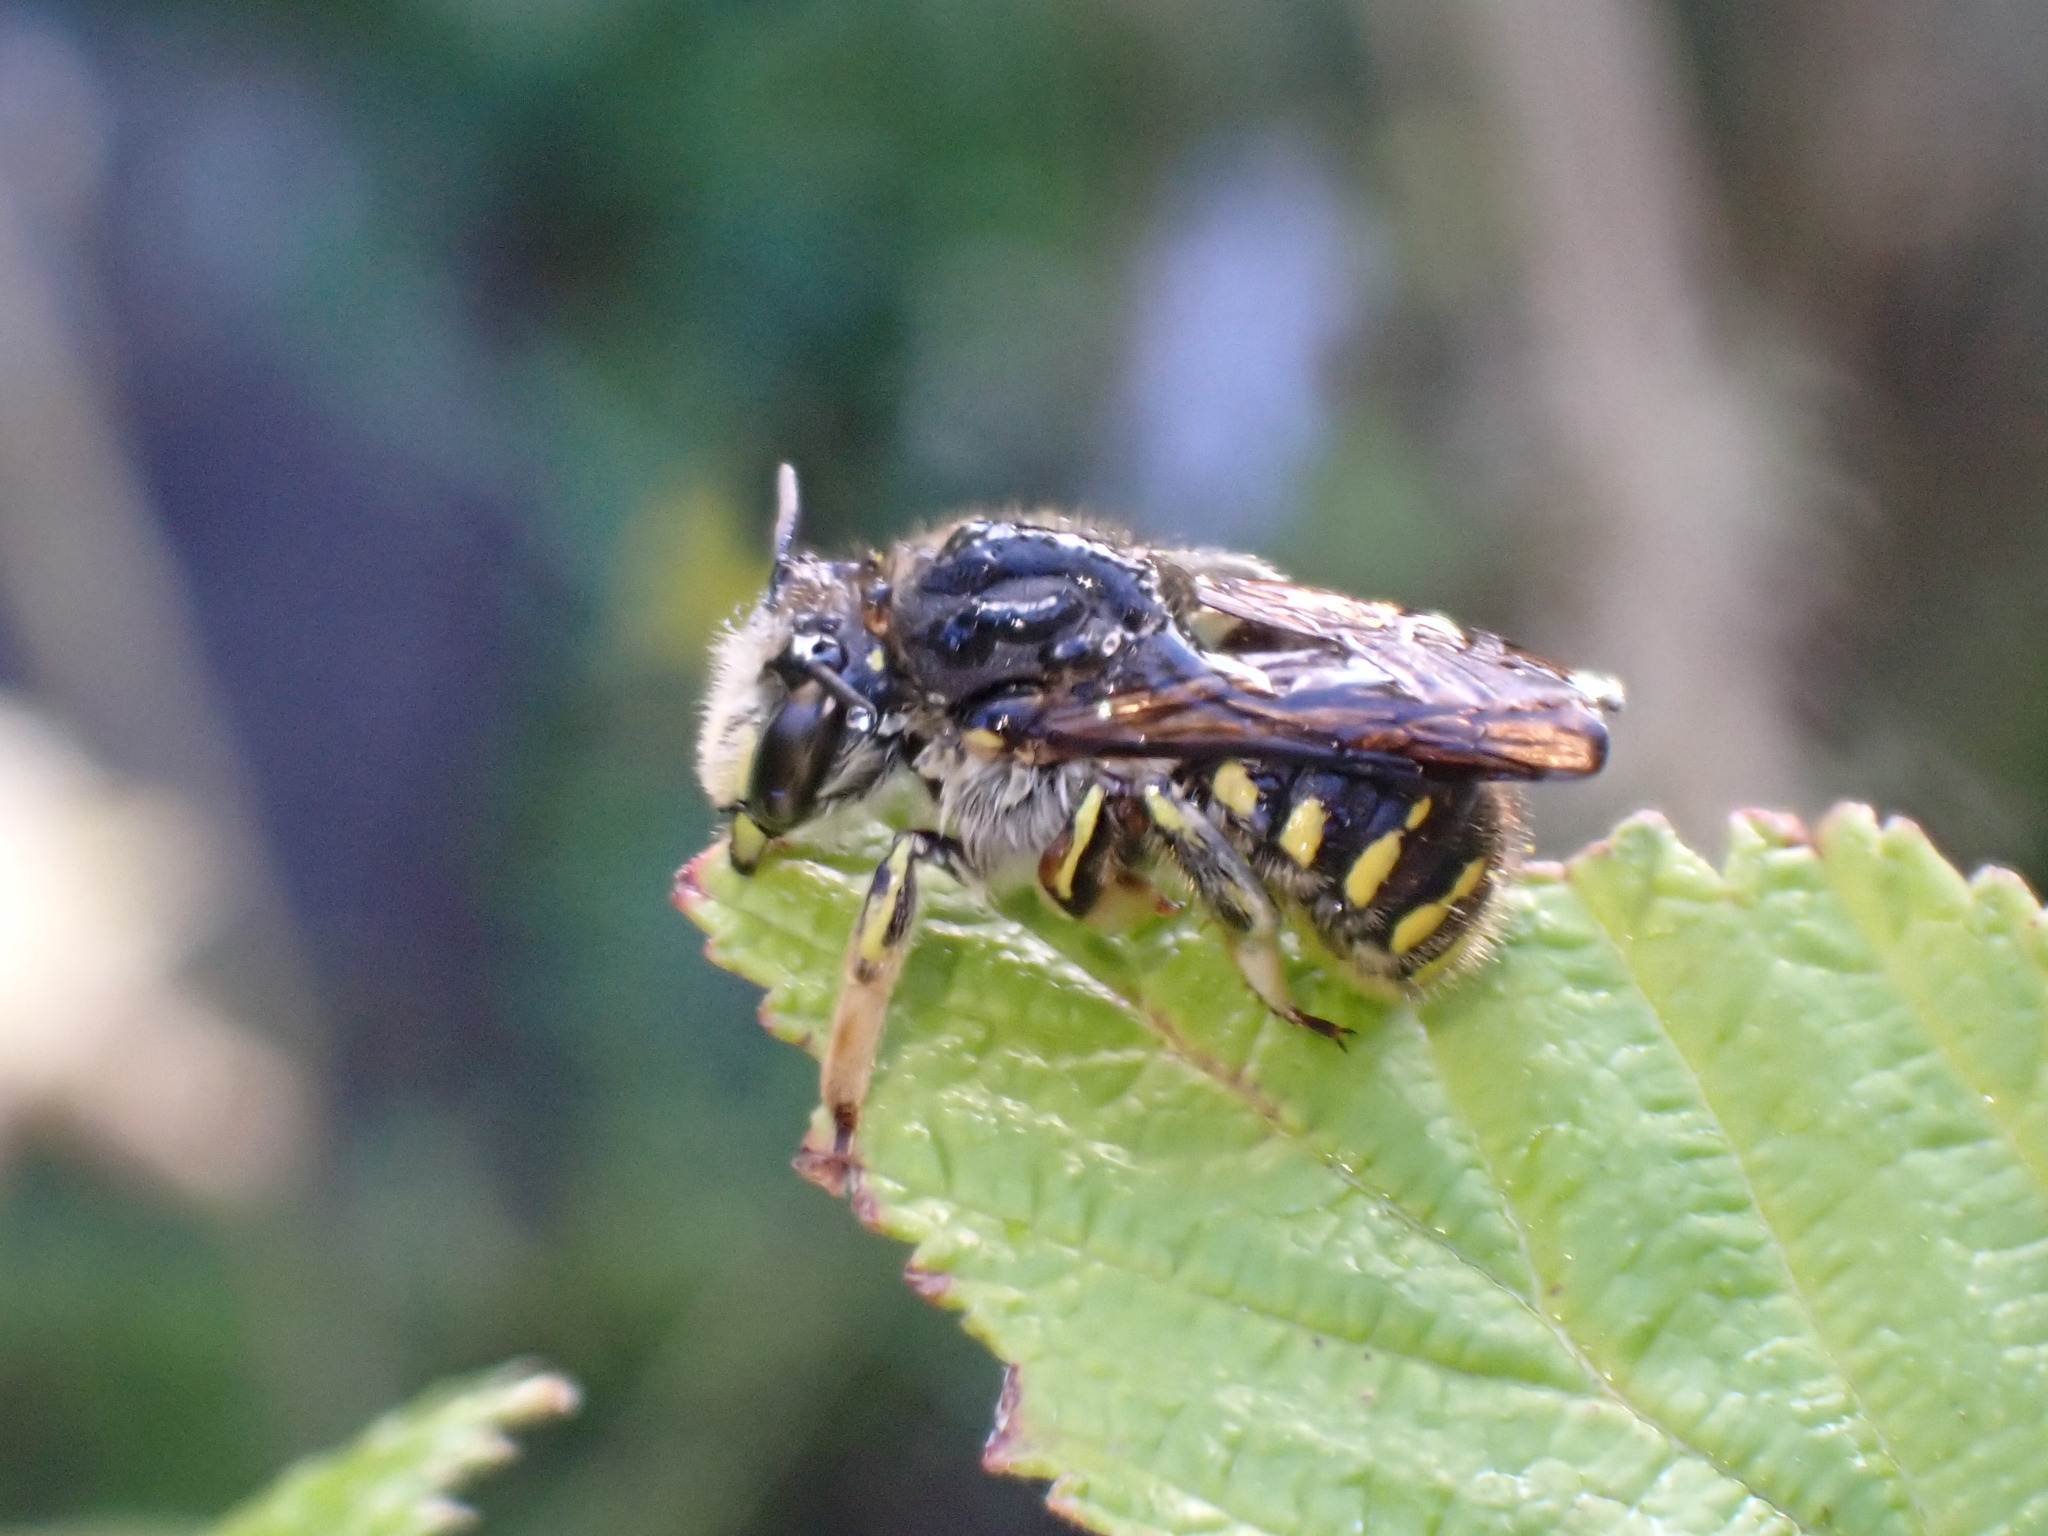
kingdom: Animalia
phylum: Arthropoda
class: Insecta
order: Hymenoptera
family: Megachilidae
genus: Anthidium
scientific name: Anthidium manicatum
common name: Wool carder bee
